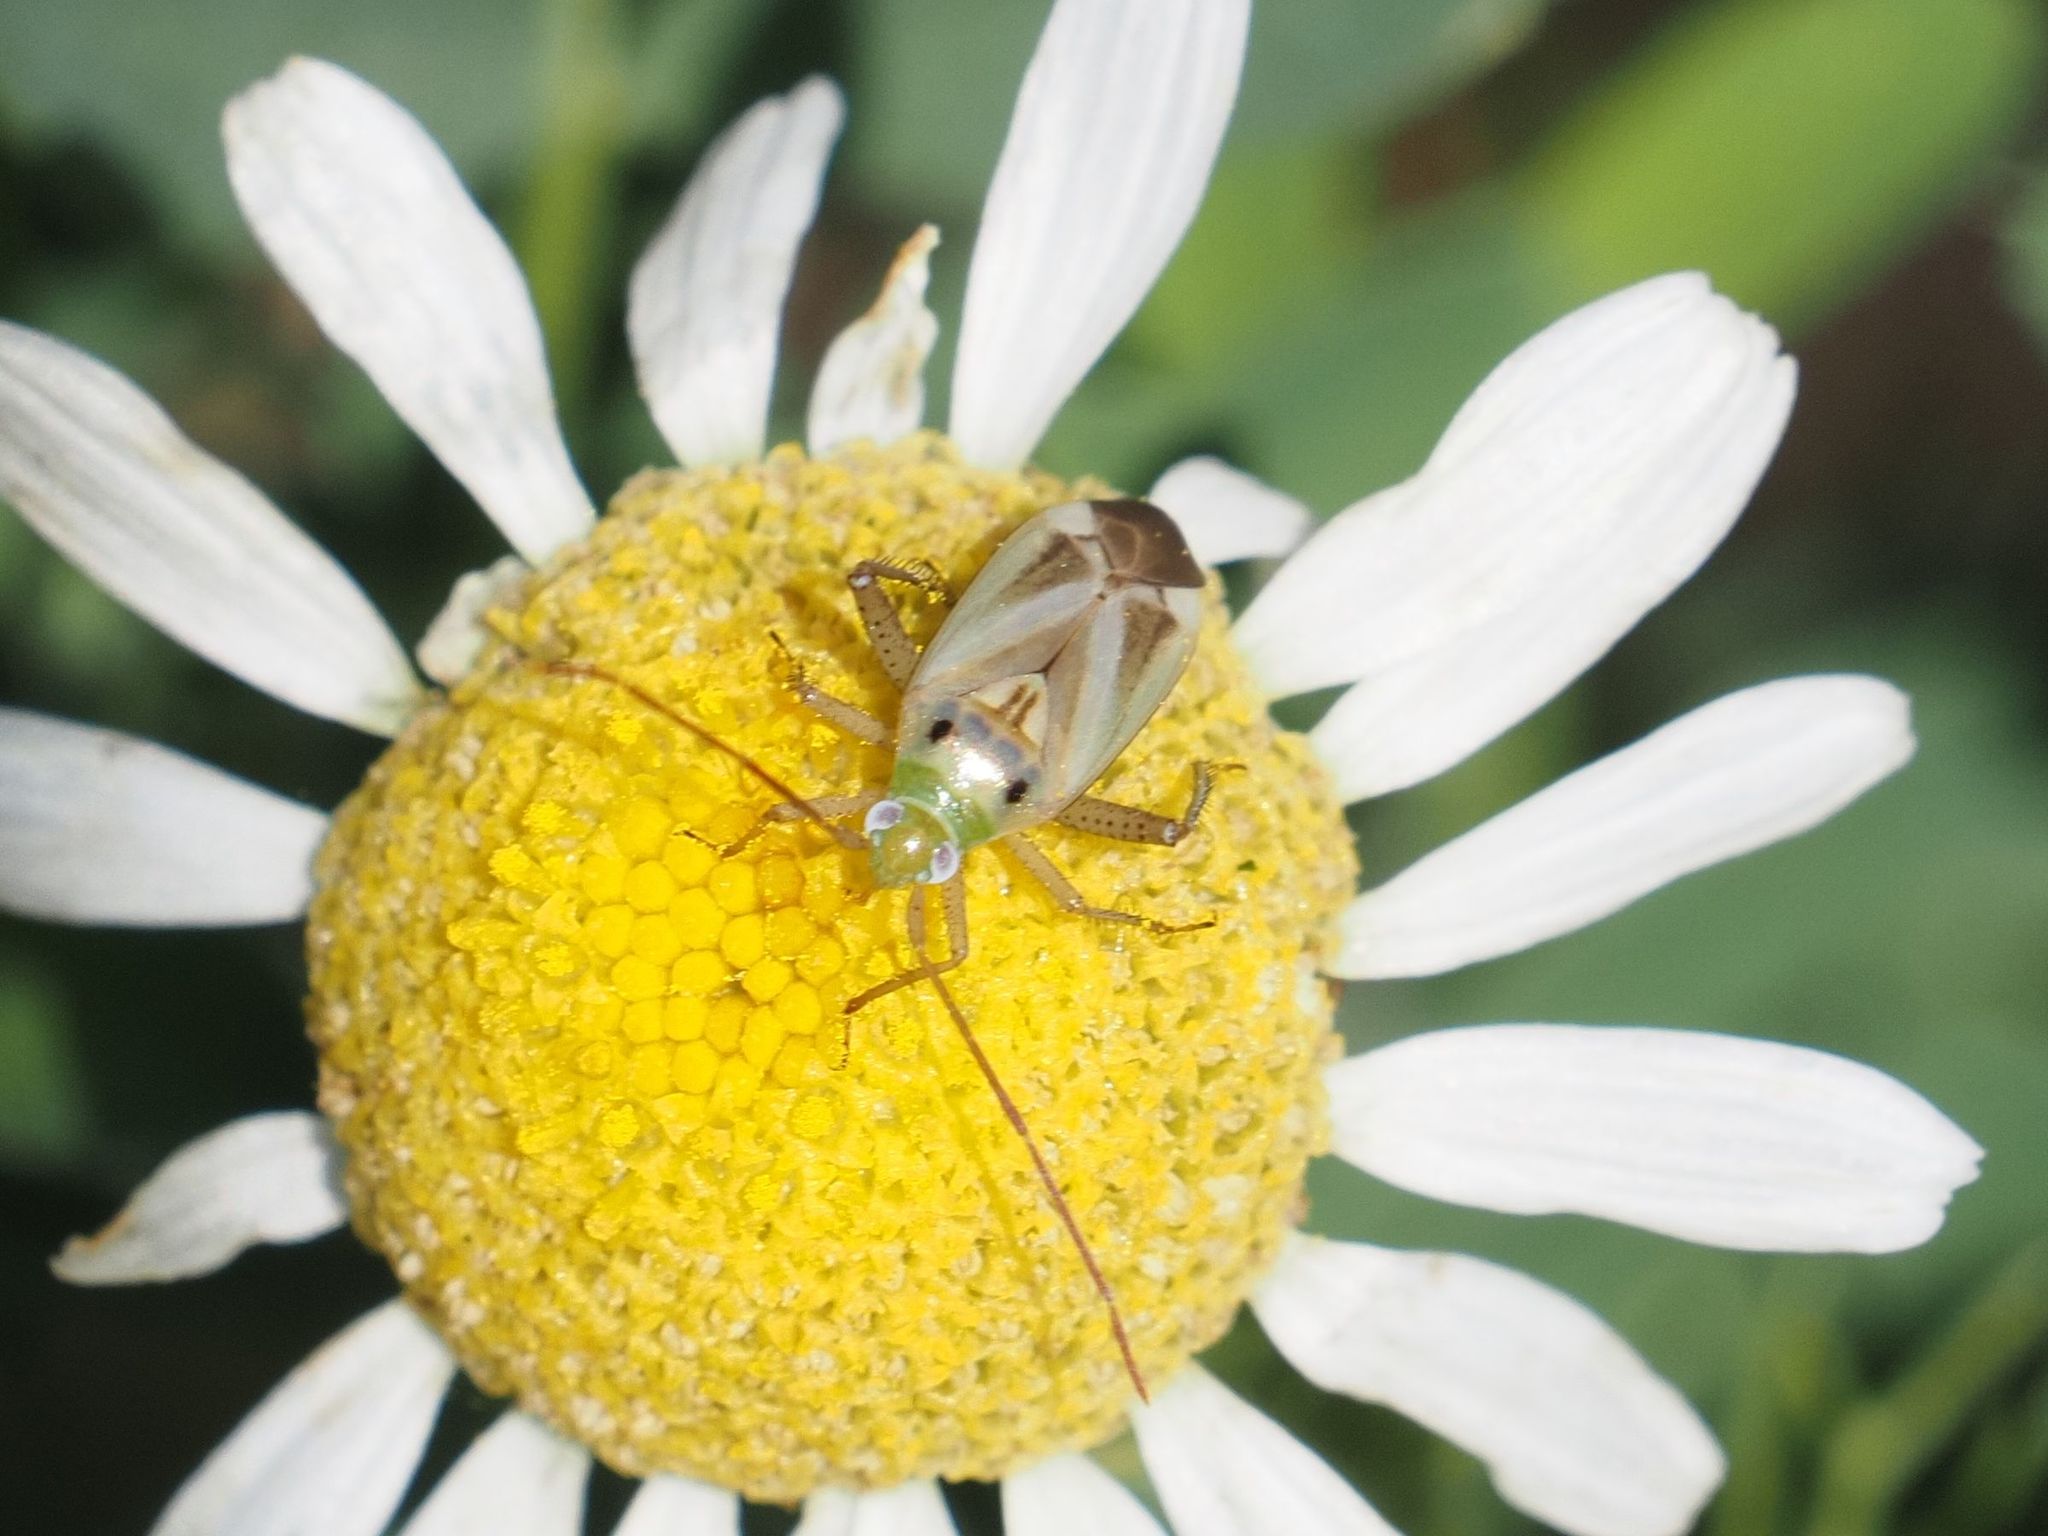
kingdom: Animalia
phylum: Arthropoda
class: Insecta
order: Hemiptera
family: Miridae
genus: Adelphocoris
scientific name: Adelphocoris lineolatus
